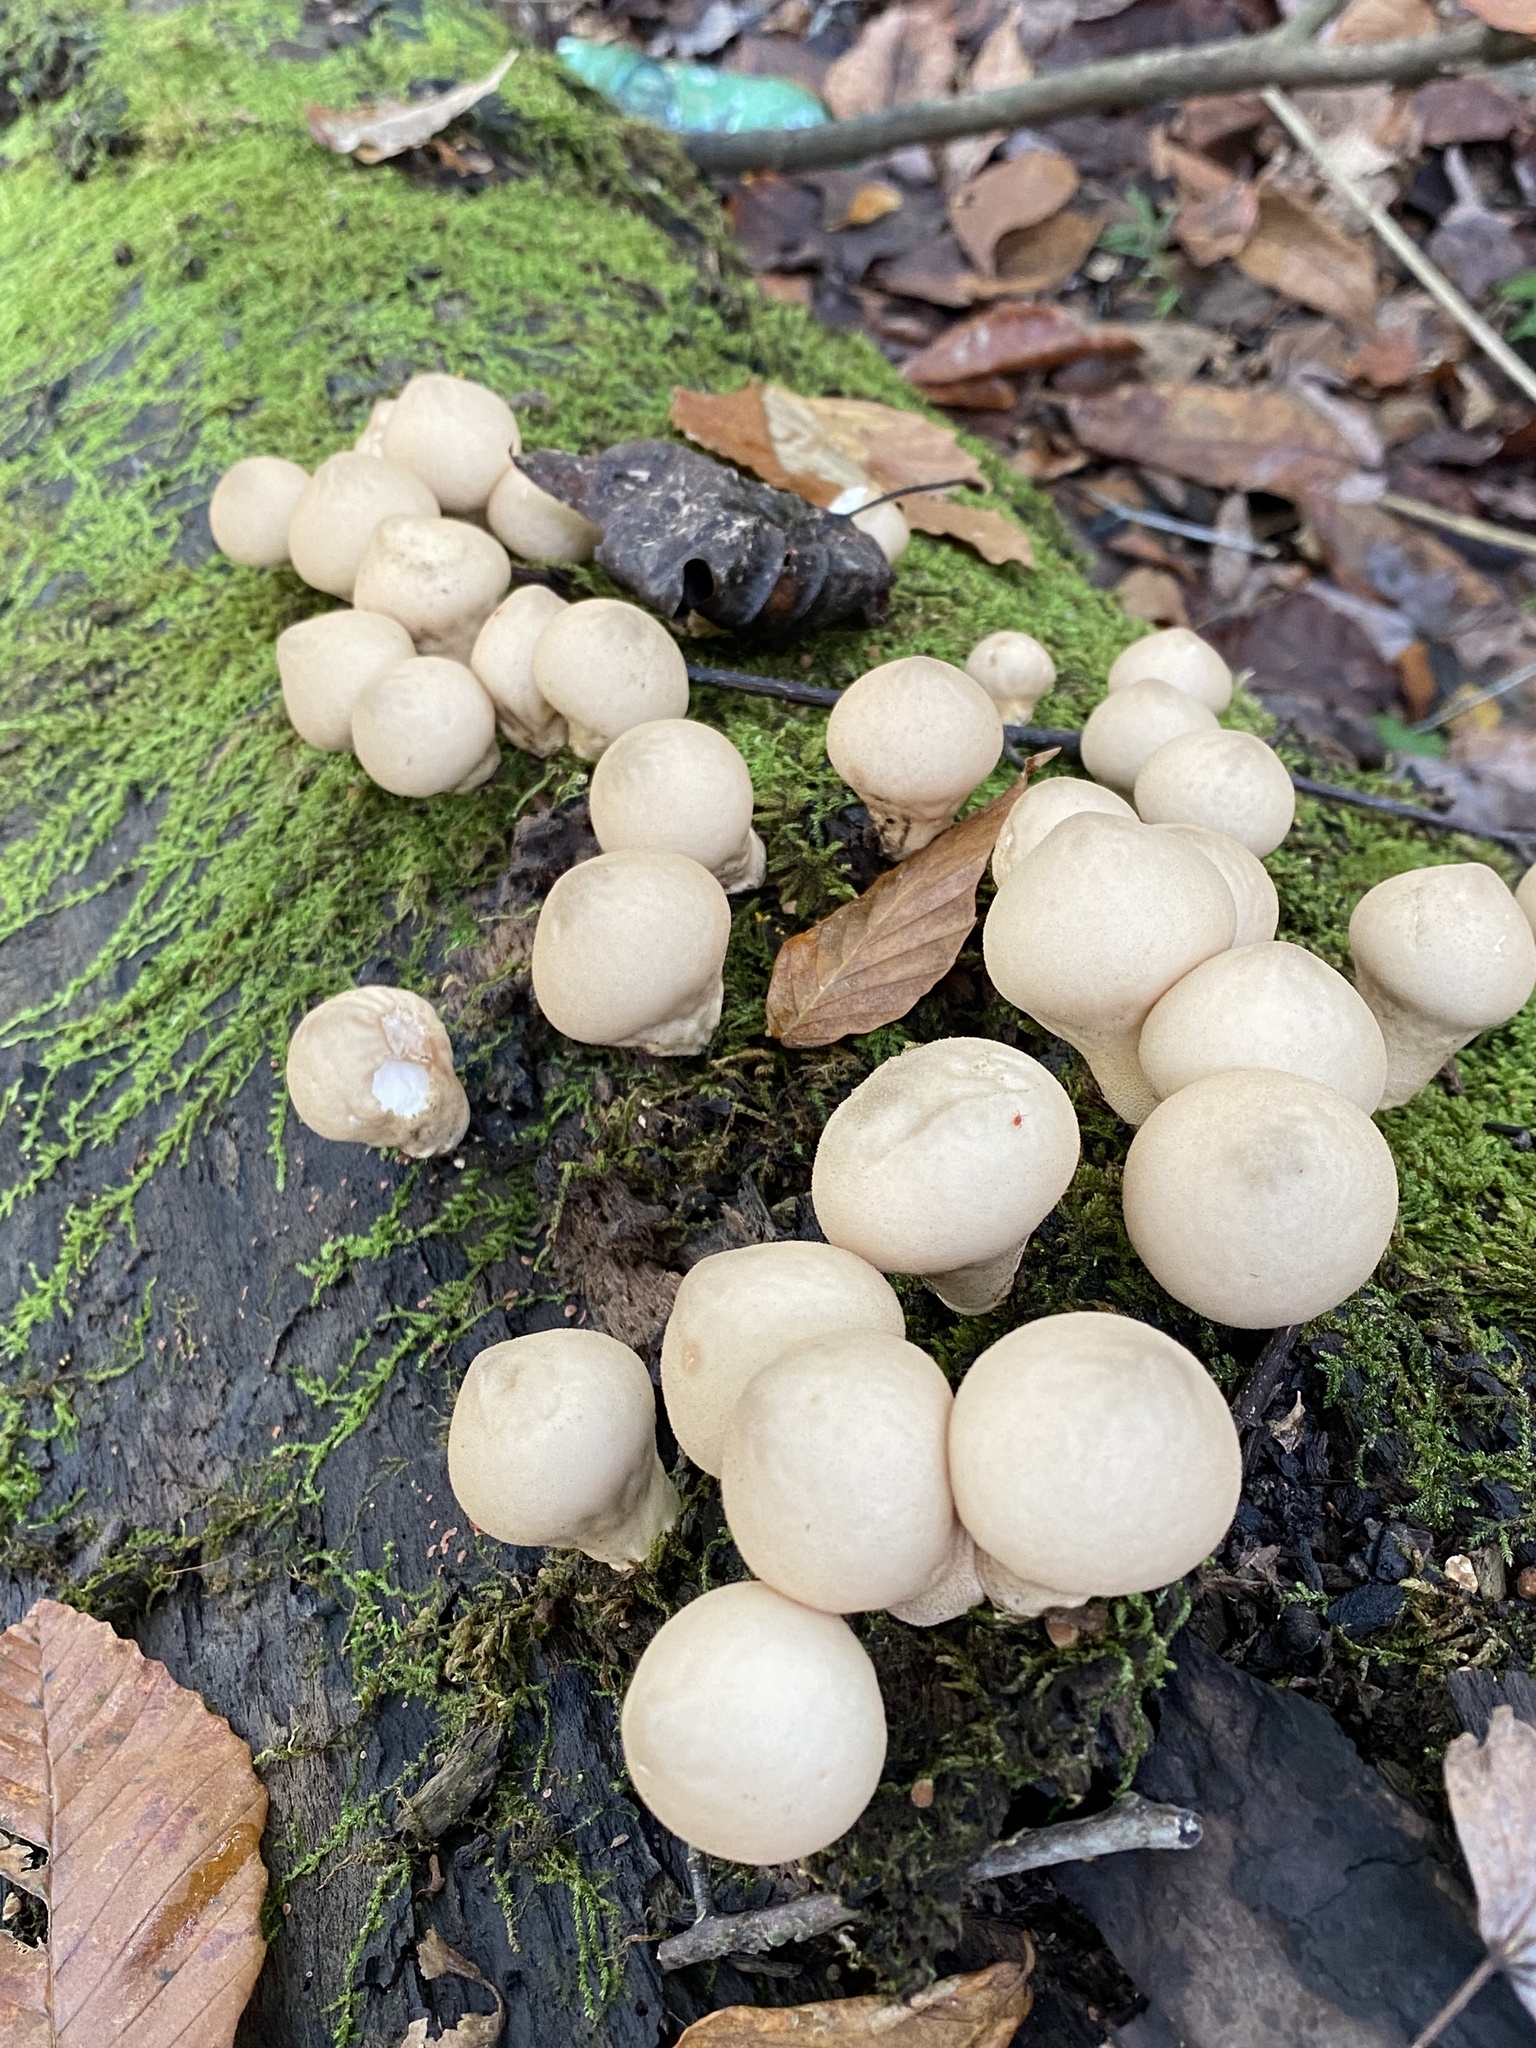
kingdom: Fungi
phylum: Basidiomycota
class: Agaricomycetes
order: Agaricales
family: Lycoperdaceae
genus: Apioperdon
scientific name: Apioperdon pyriforme
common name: Pear-shaped puffball
